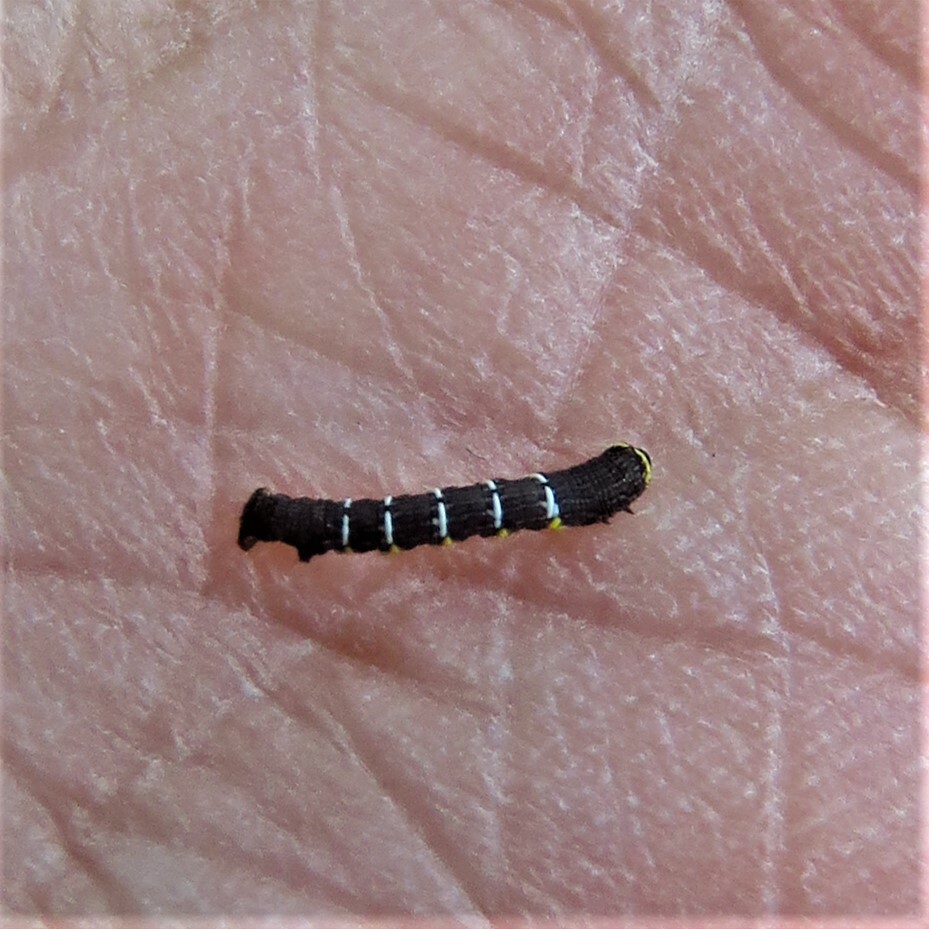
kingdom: Animalia
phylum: Arthropoda
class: Insecta
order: Lepidoptera
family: Geometridae
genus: Lycia
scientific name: Lycia ypsilon
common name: Wooly gray
